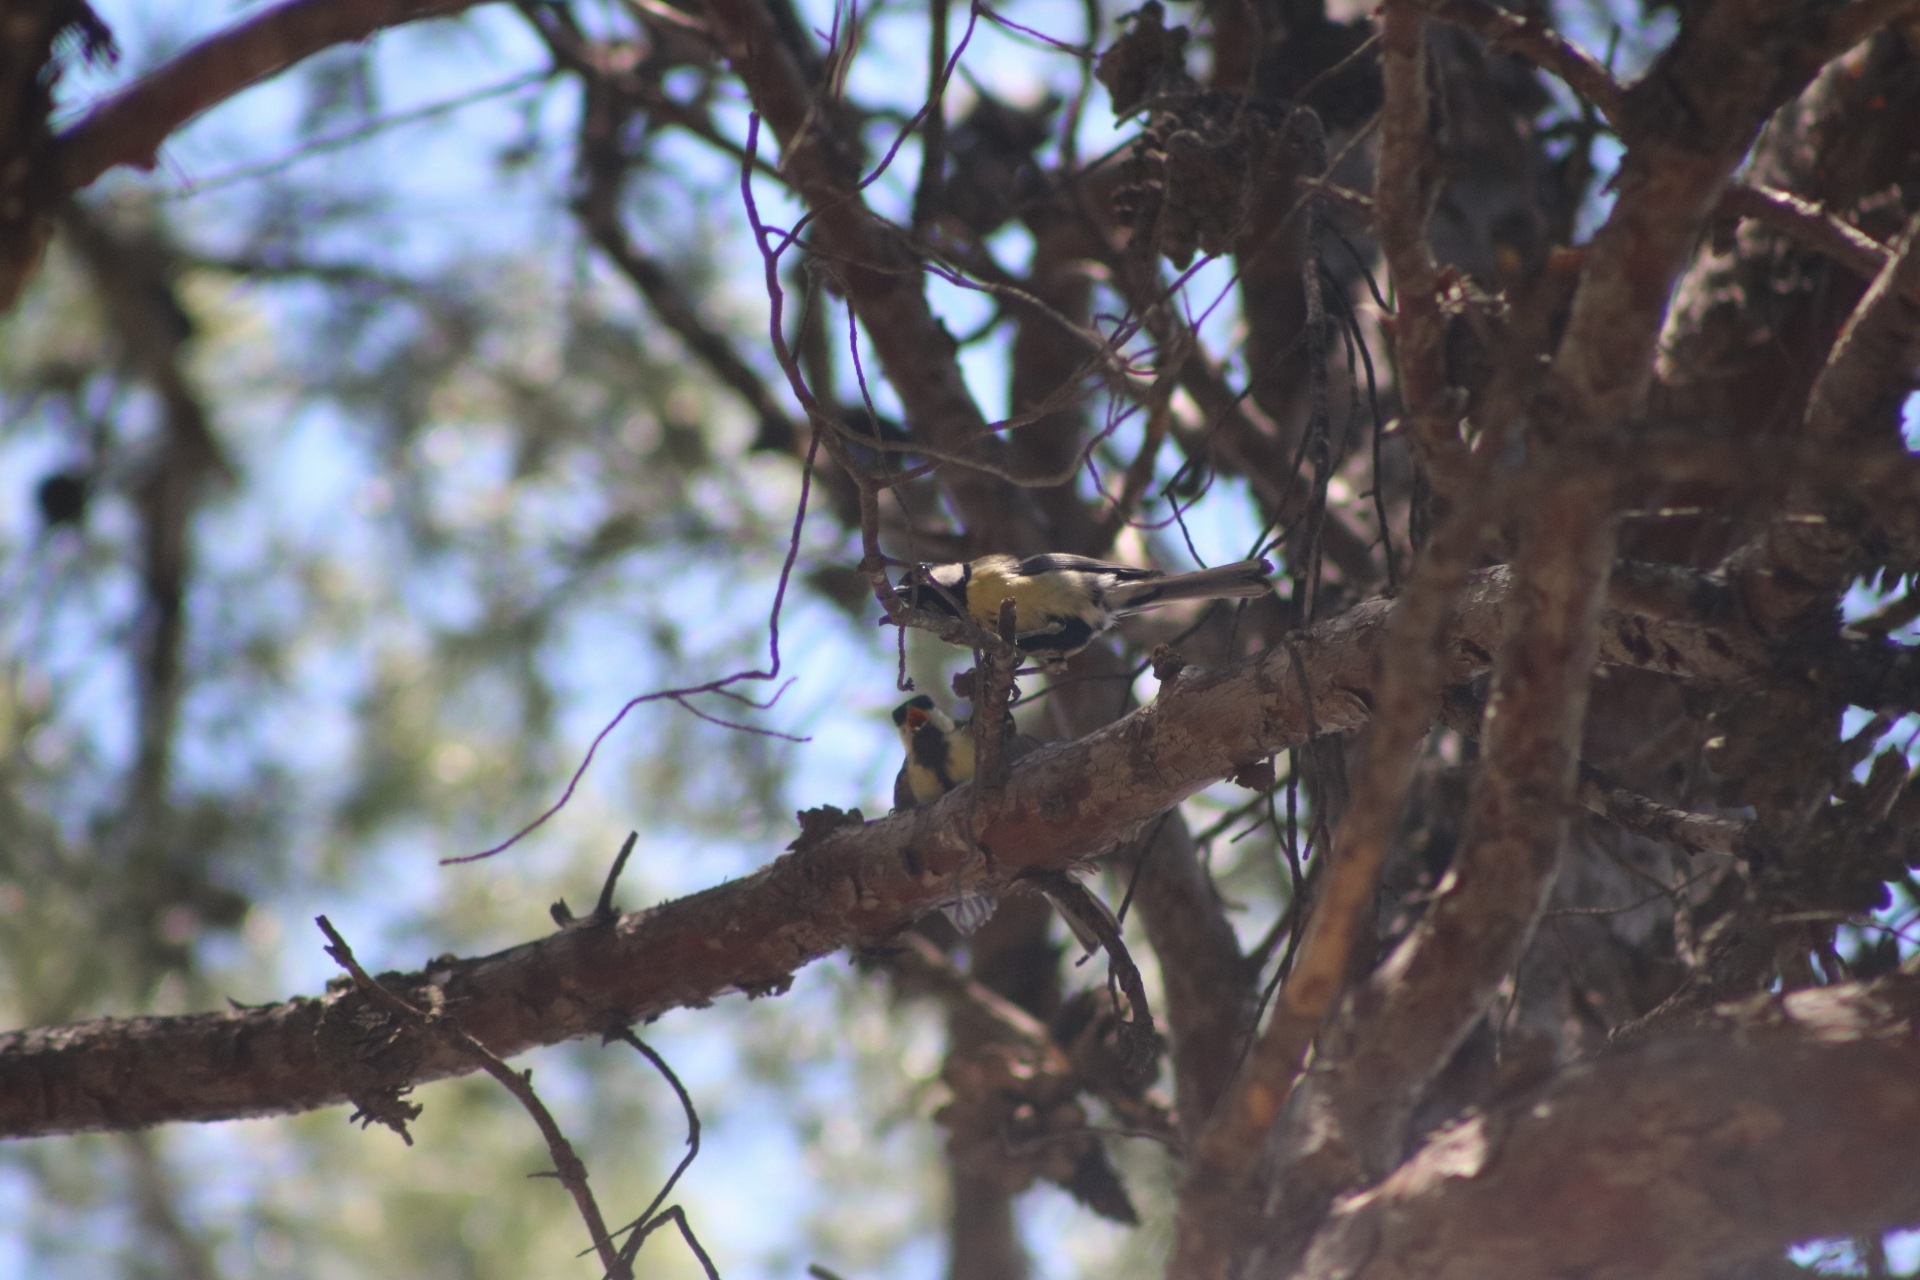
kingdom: Animalia
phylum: Chordata
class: Aves
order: Passeriformes
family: Paridae
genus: Parus
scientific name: Parus major
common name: Great tit
